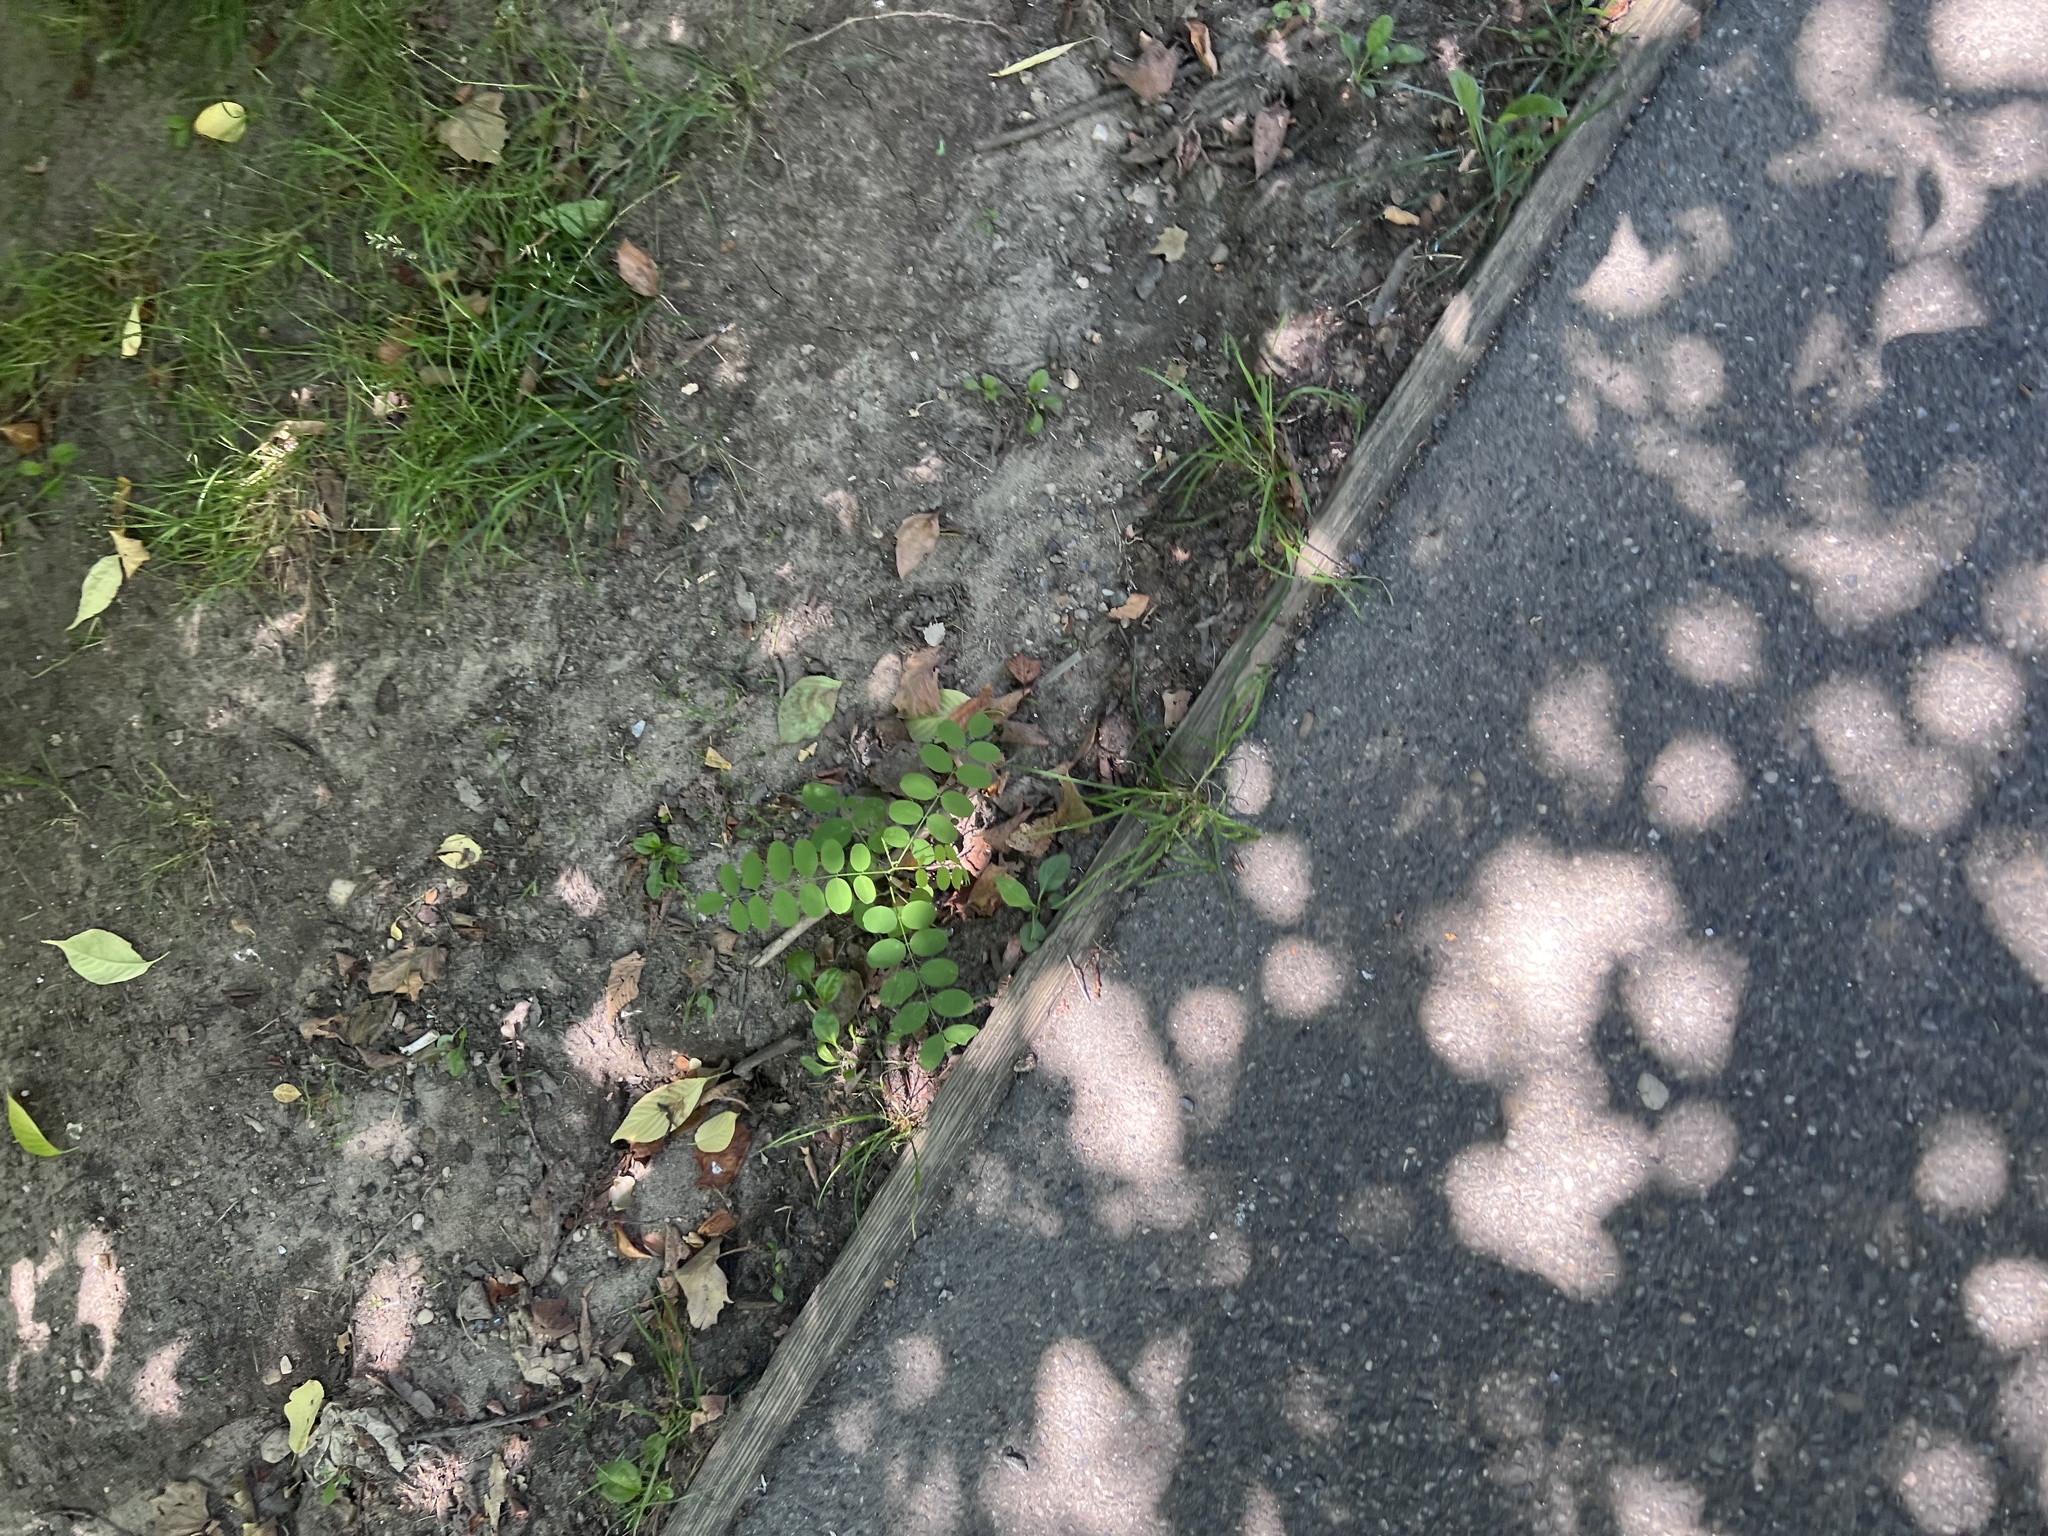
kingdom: Plantae
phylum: Tracheophyta
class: Magnoliopsida
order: Fabales
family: Fabaceae
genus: Robinia
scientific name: Robinia pseudoacacia
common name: Black locust
